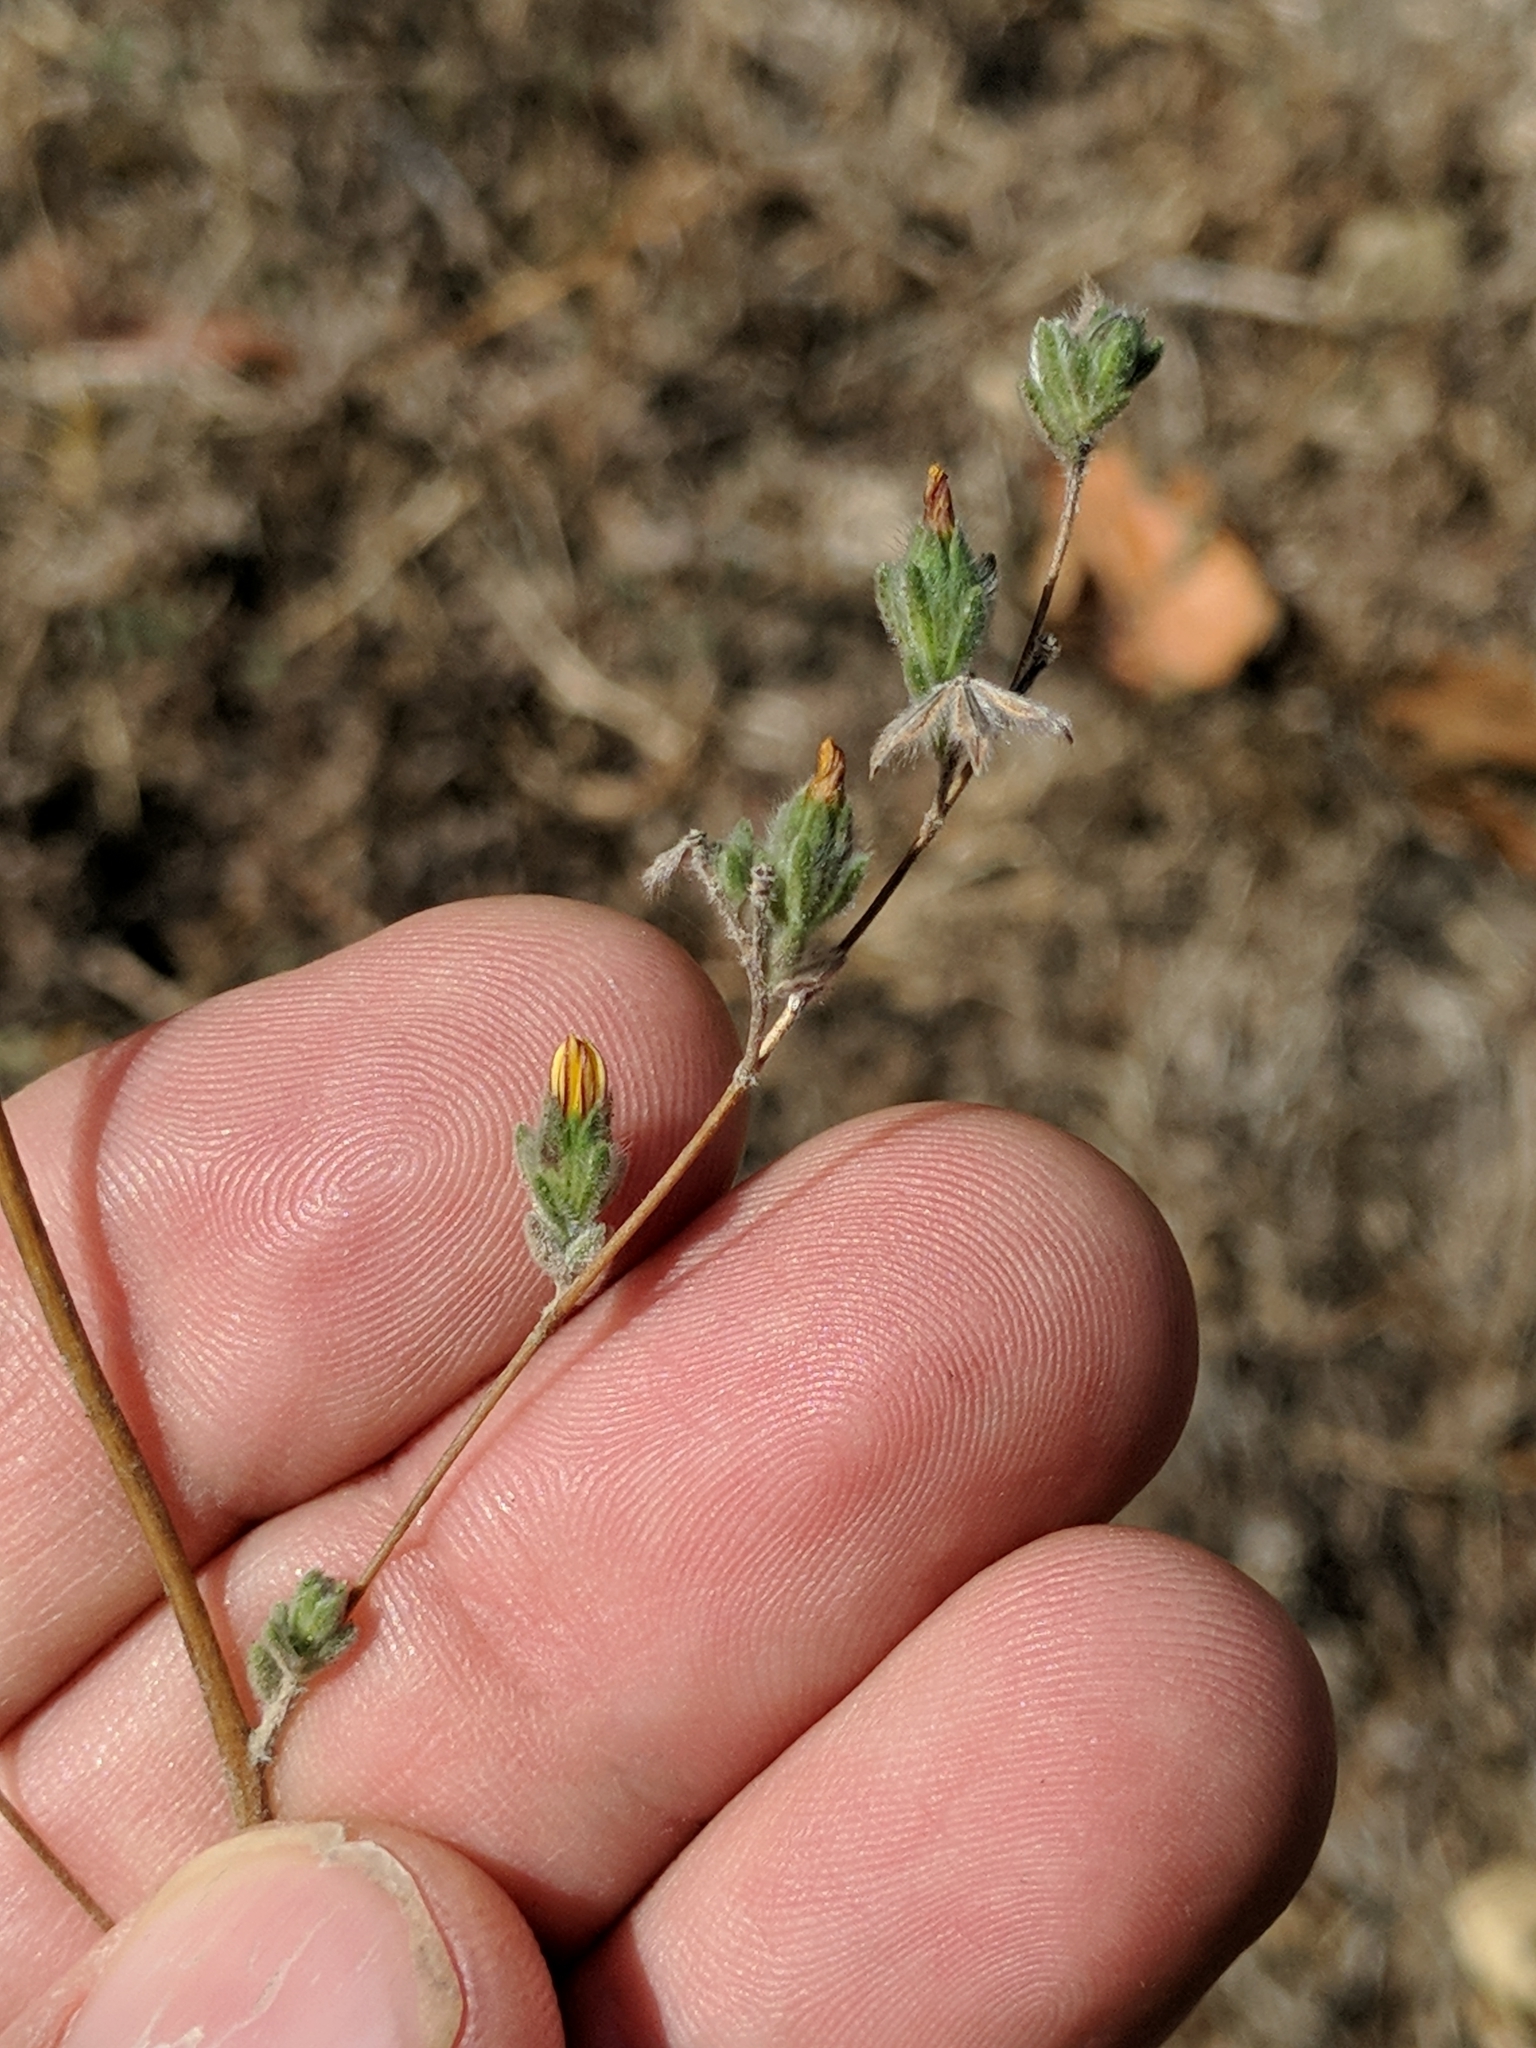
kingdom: Plantae
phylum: Tracheophyta
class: Magnoliopsida
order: Asterales
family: Asteraceae
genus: Lagophylla
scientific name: Lagophylla ramosissima
